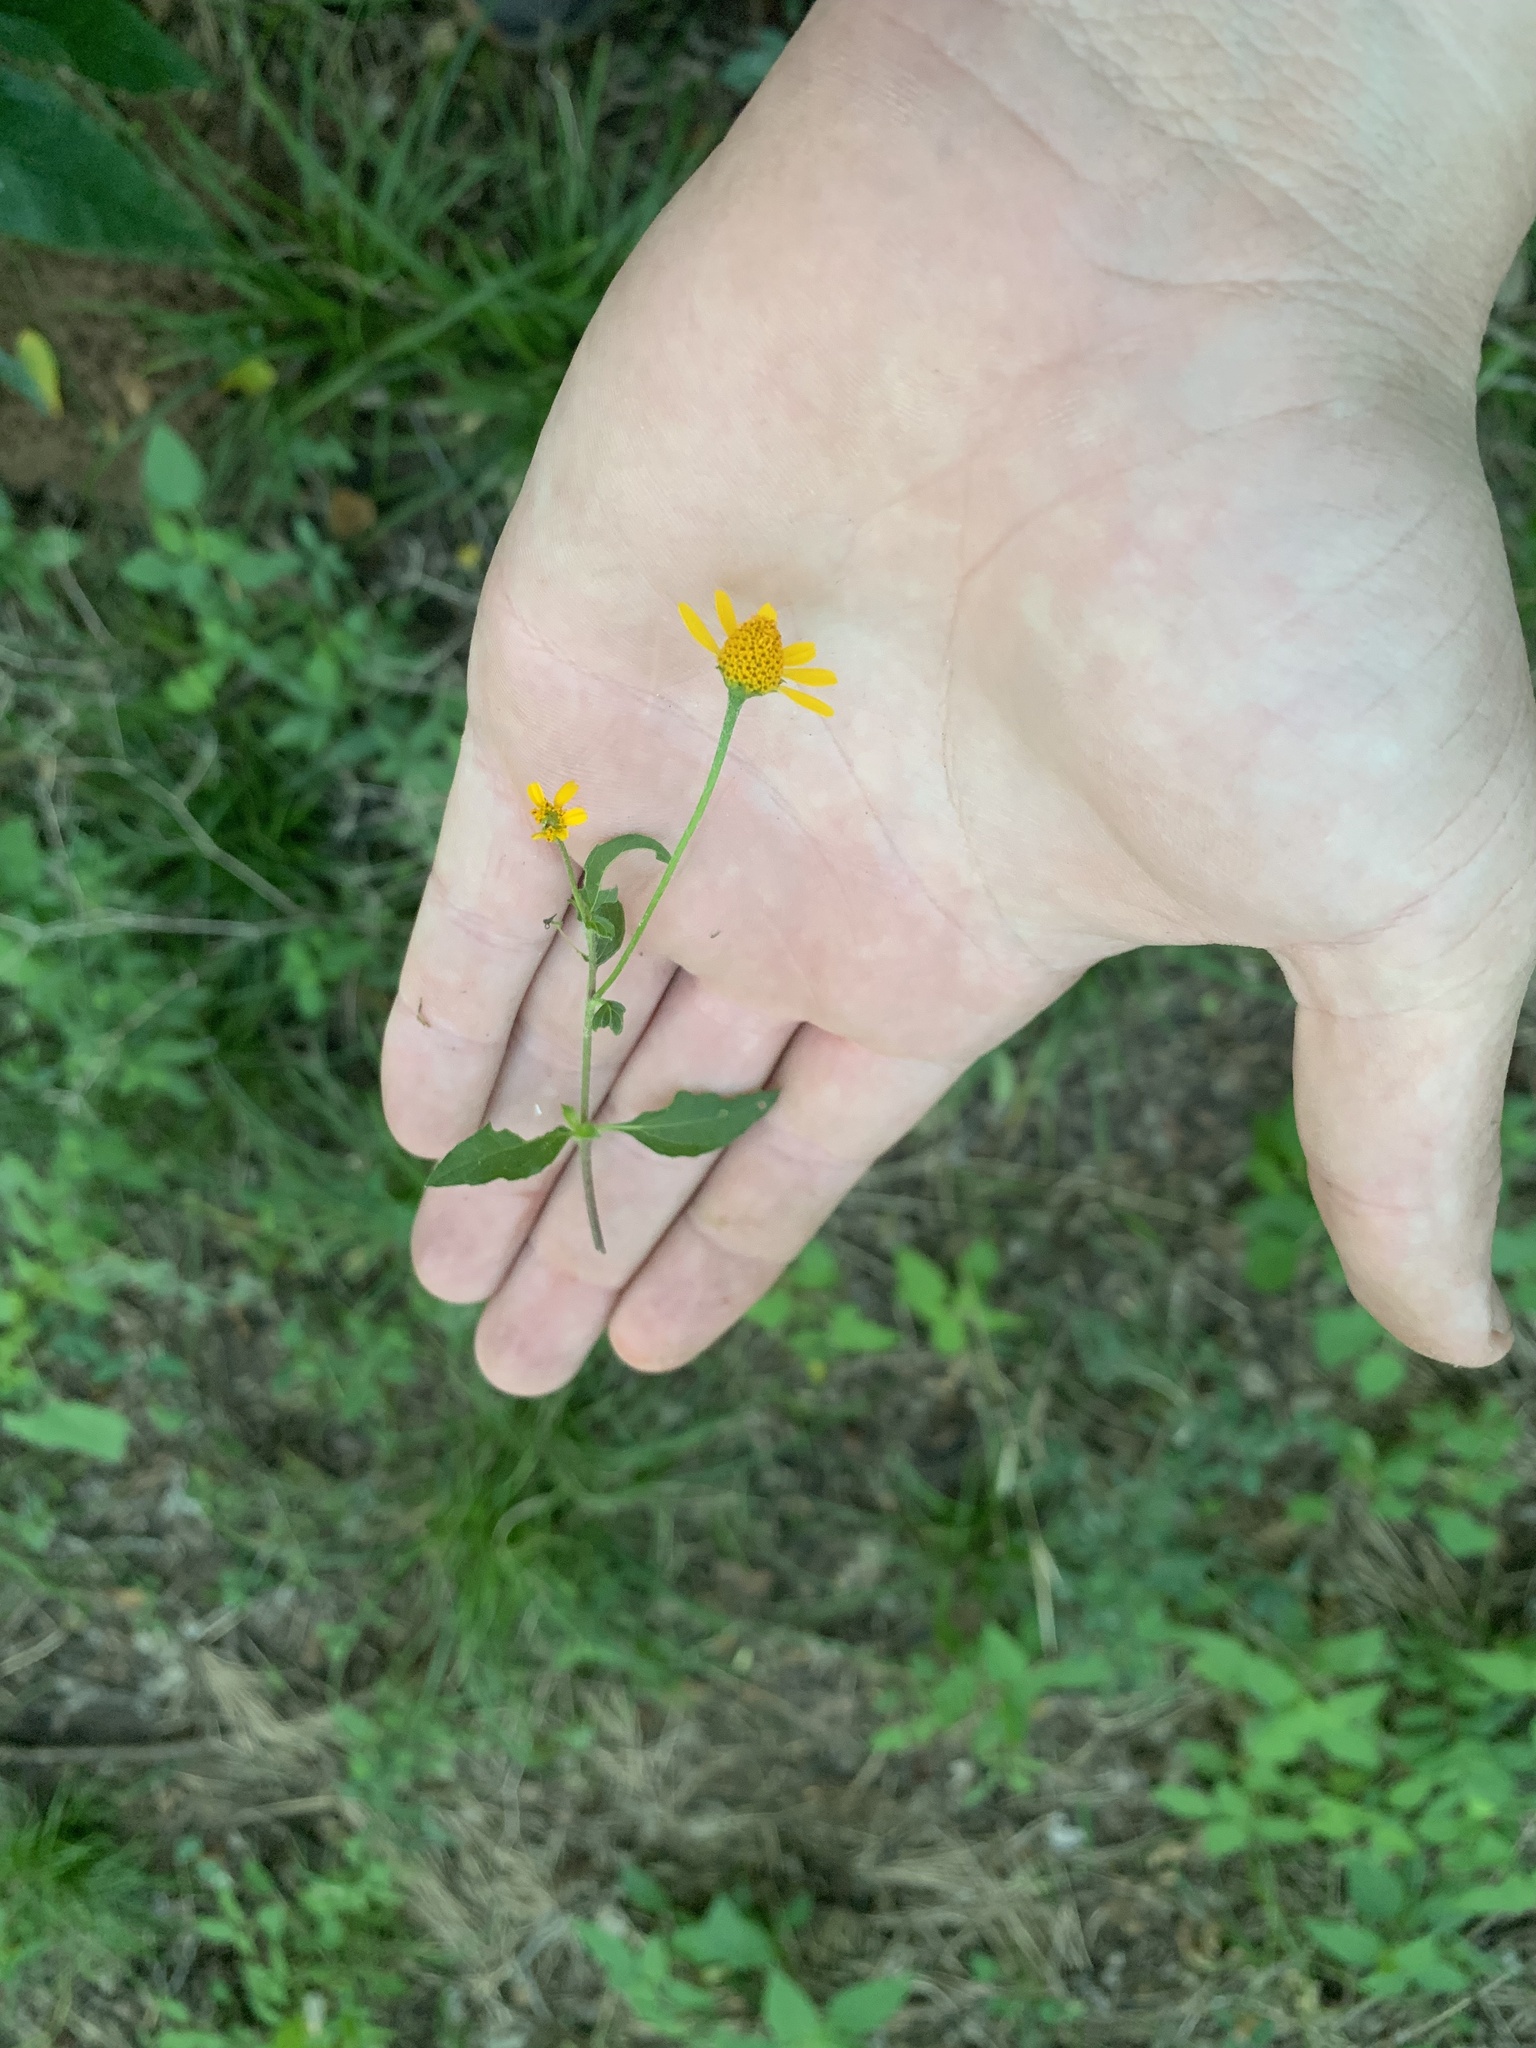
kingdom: Plantae
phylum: Tracheophyta
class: Magnoliopsida
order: Asterales
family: Asteraceae
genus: Acmella
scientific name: Acmella repens
